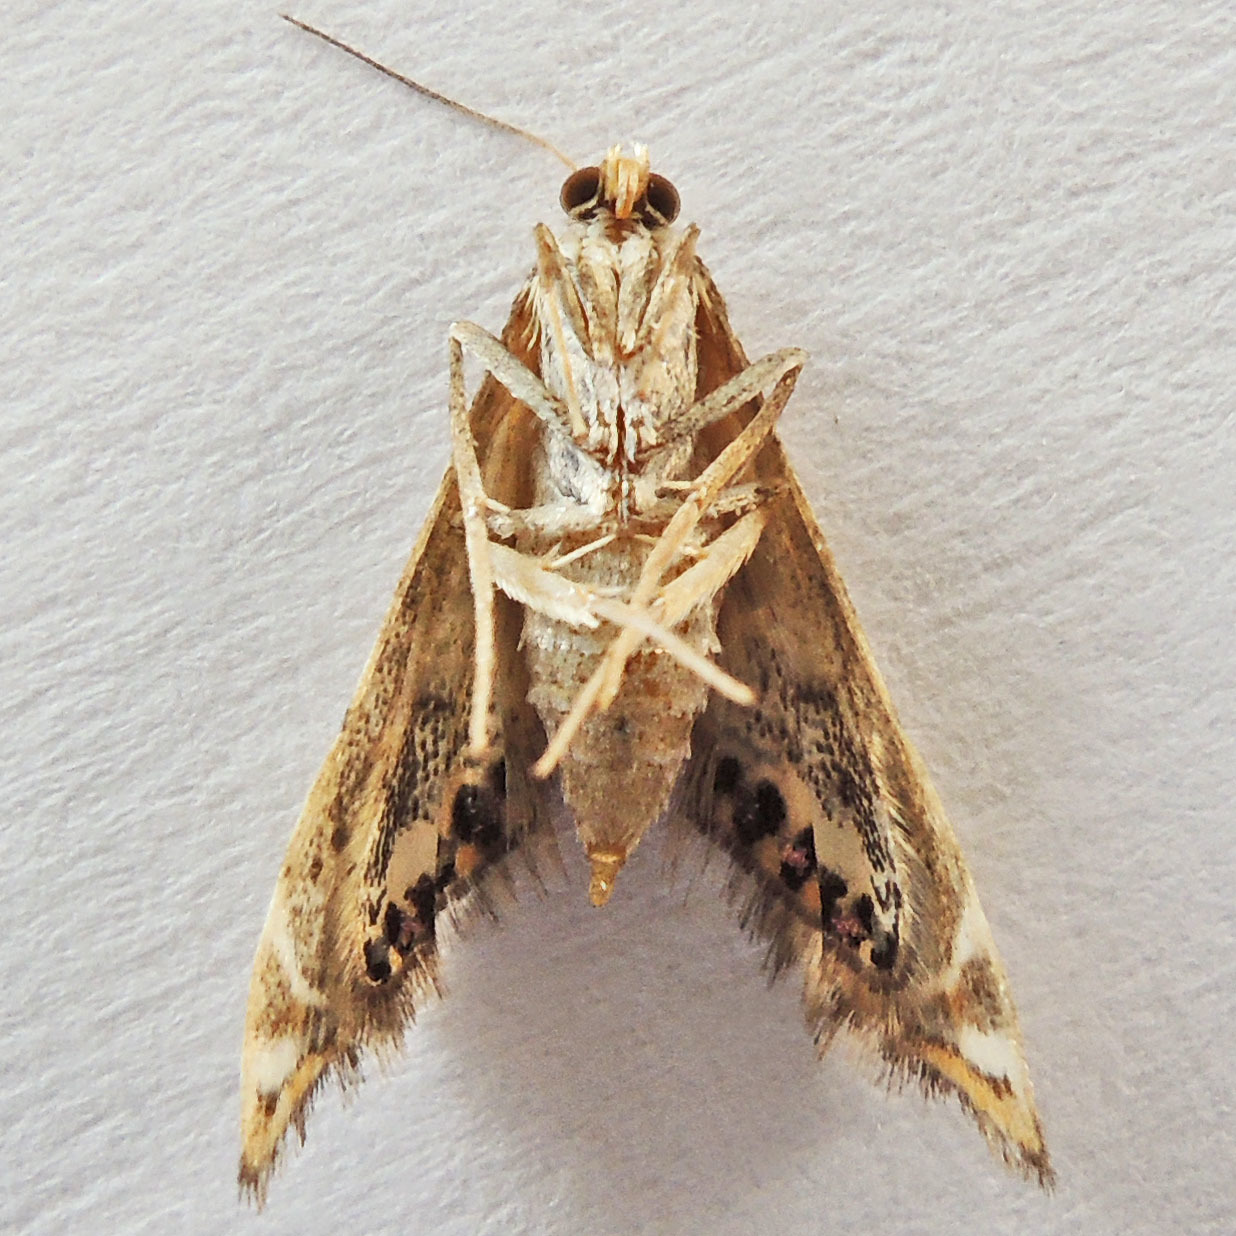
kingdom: Animalia
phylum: Arthropoda
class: Insecta
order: Lepidoptera
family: Crambidae
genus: Petrophila
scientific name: Petrophila fulicalis
